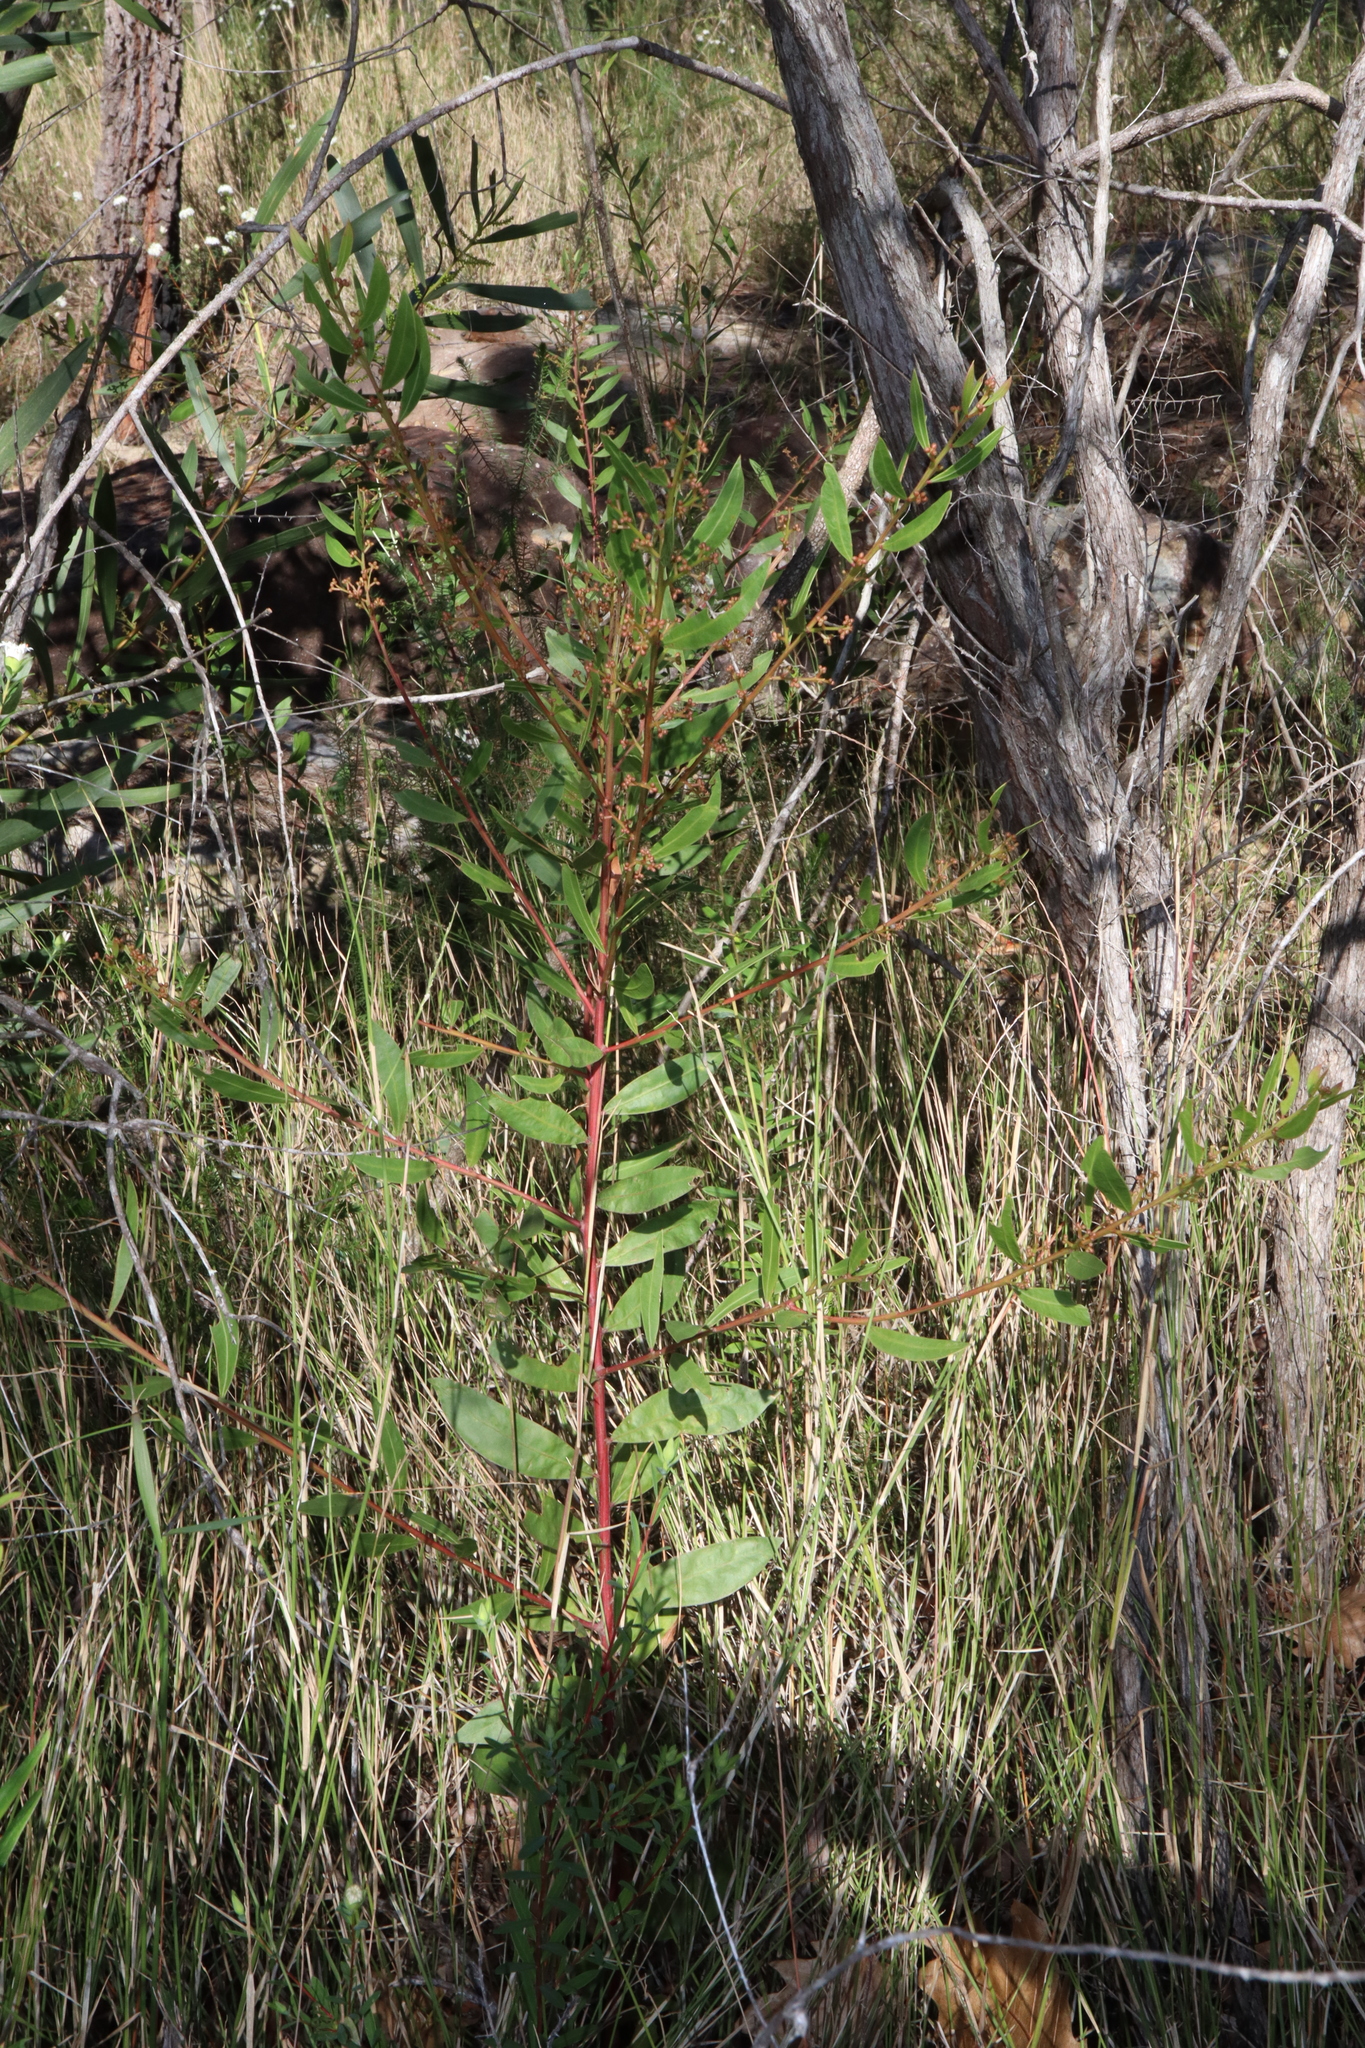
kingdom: Plantae
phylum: Tracheophyta
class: Magnoliopsida
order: Fabales
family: Fabaceae
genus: Acacia
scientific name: Acacia myrtifolia
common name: Myrtle wattle
